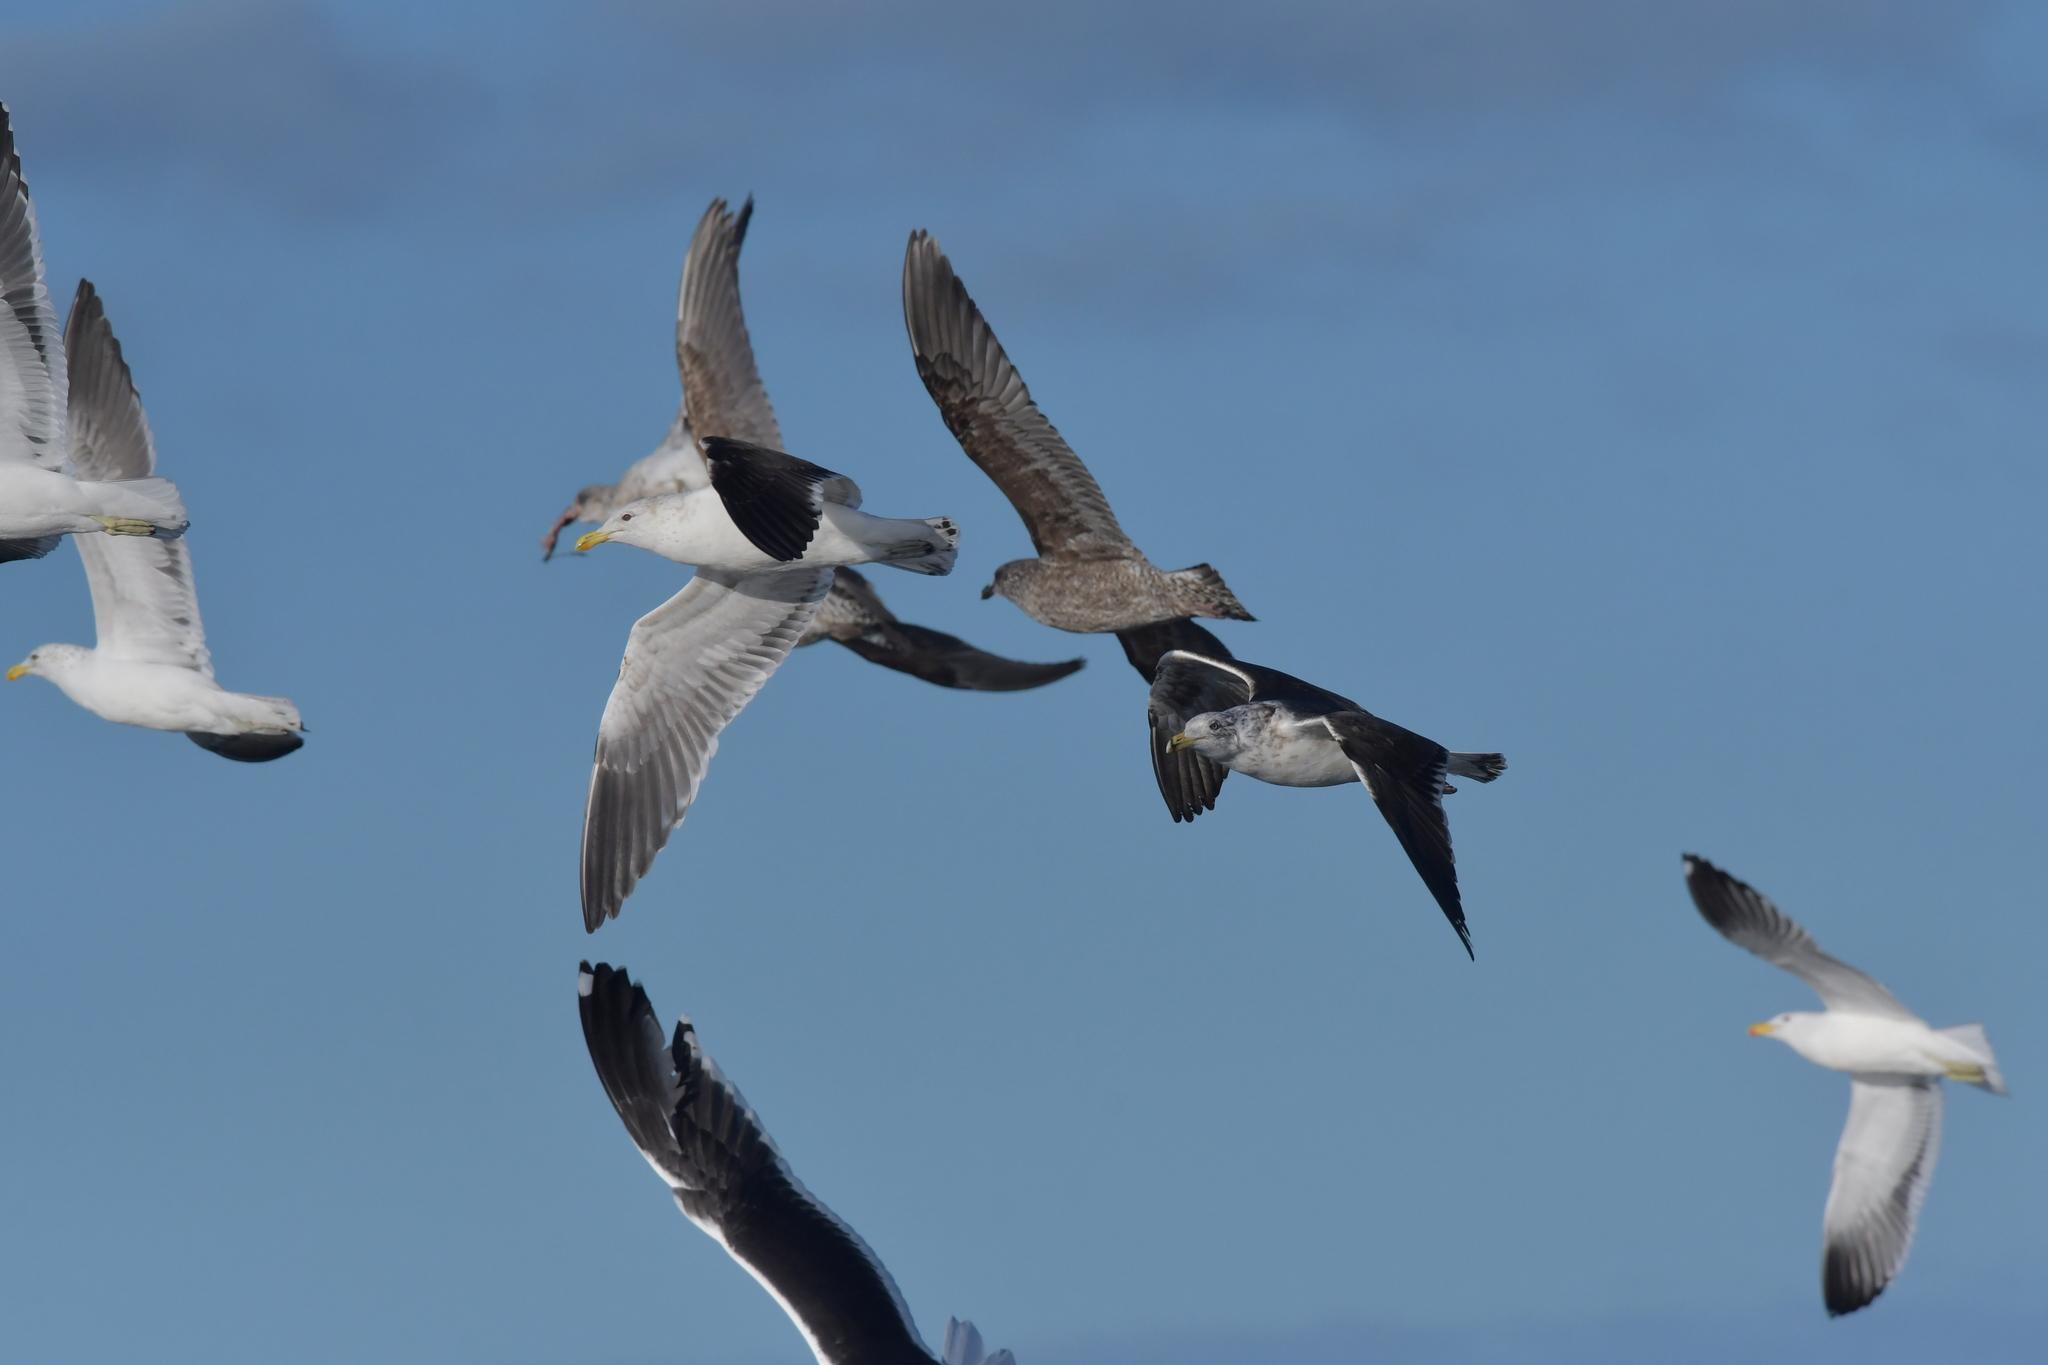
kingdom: Animalia
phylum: Chordata
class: Aves
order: Charadriiformes
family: Laridae
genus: Larus
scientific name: Larus dominicanus
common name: Kelp gull
